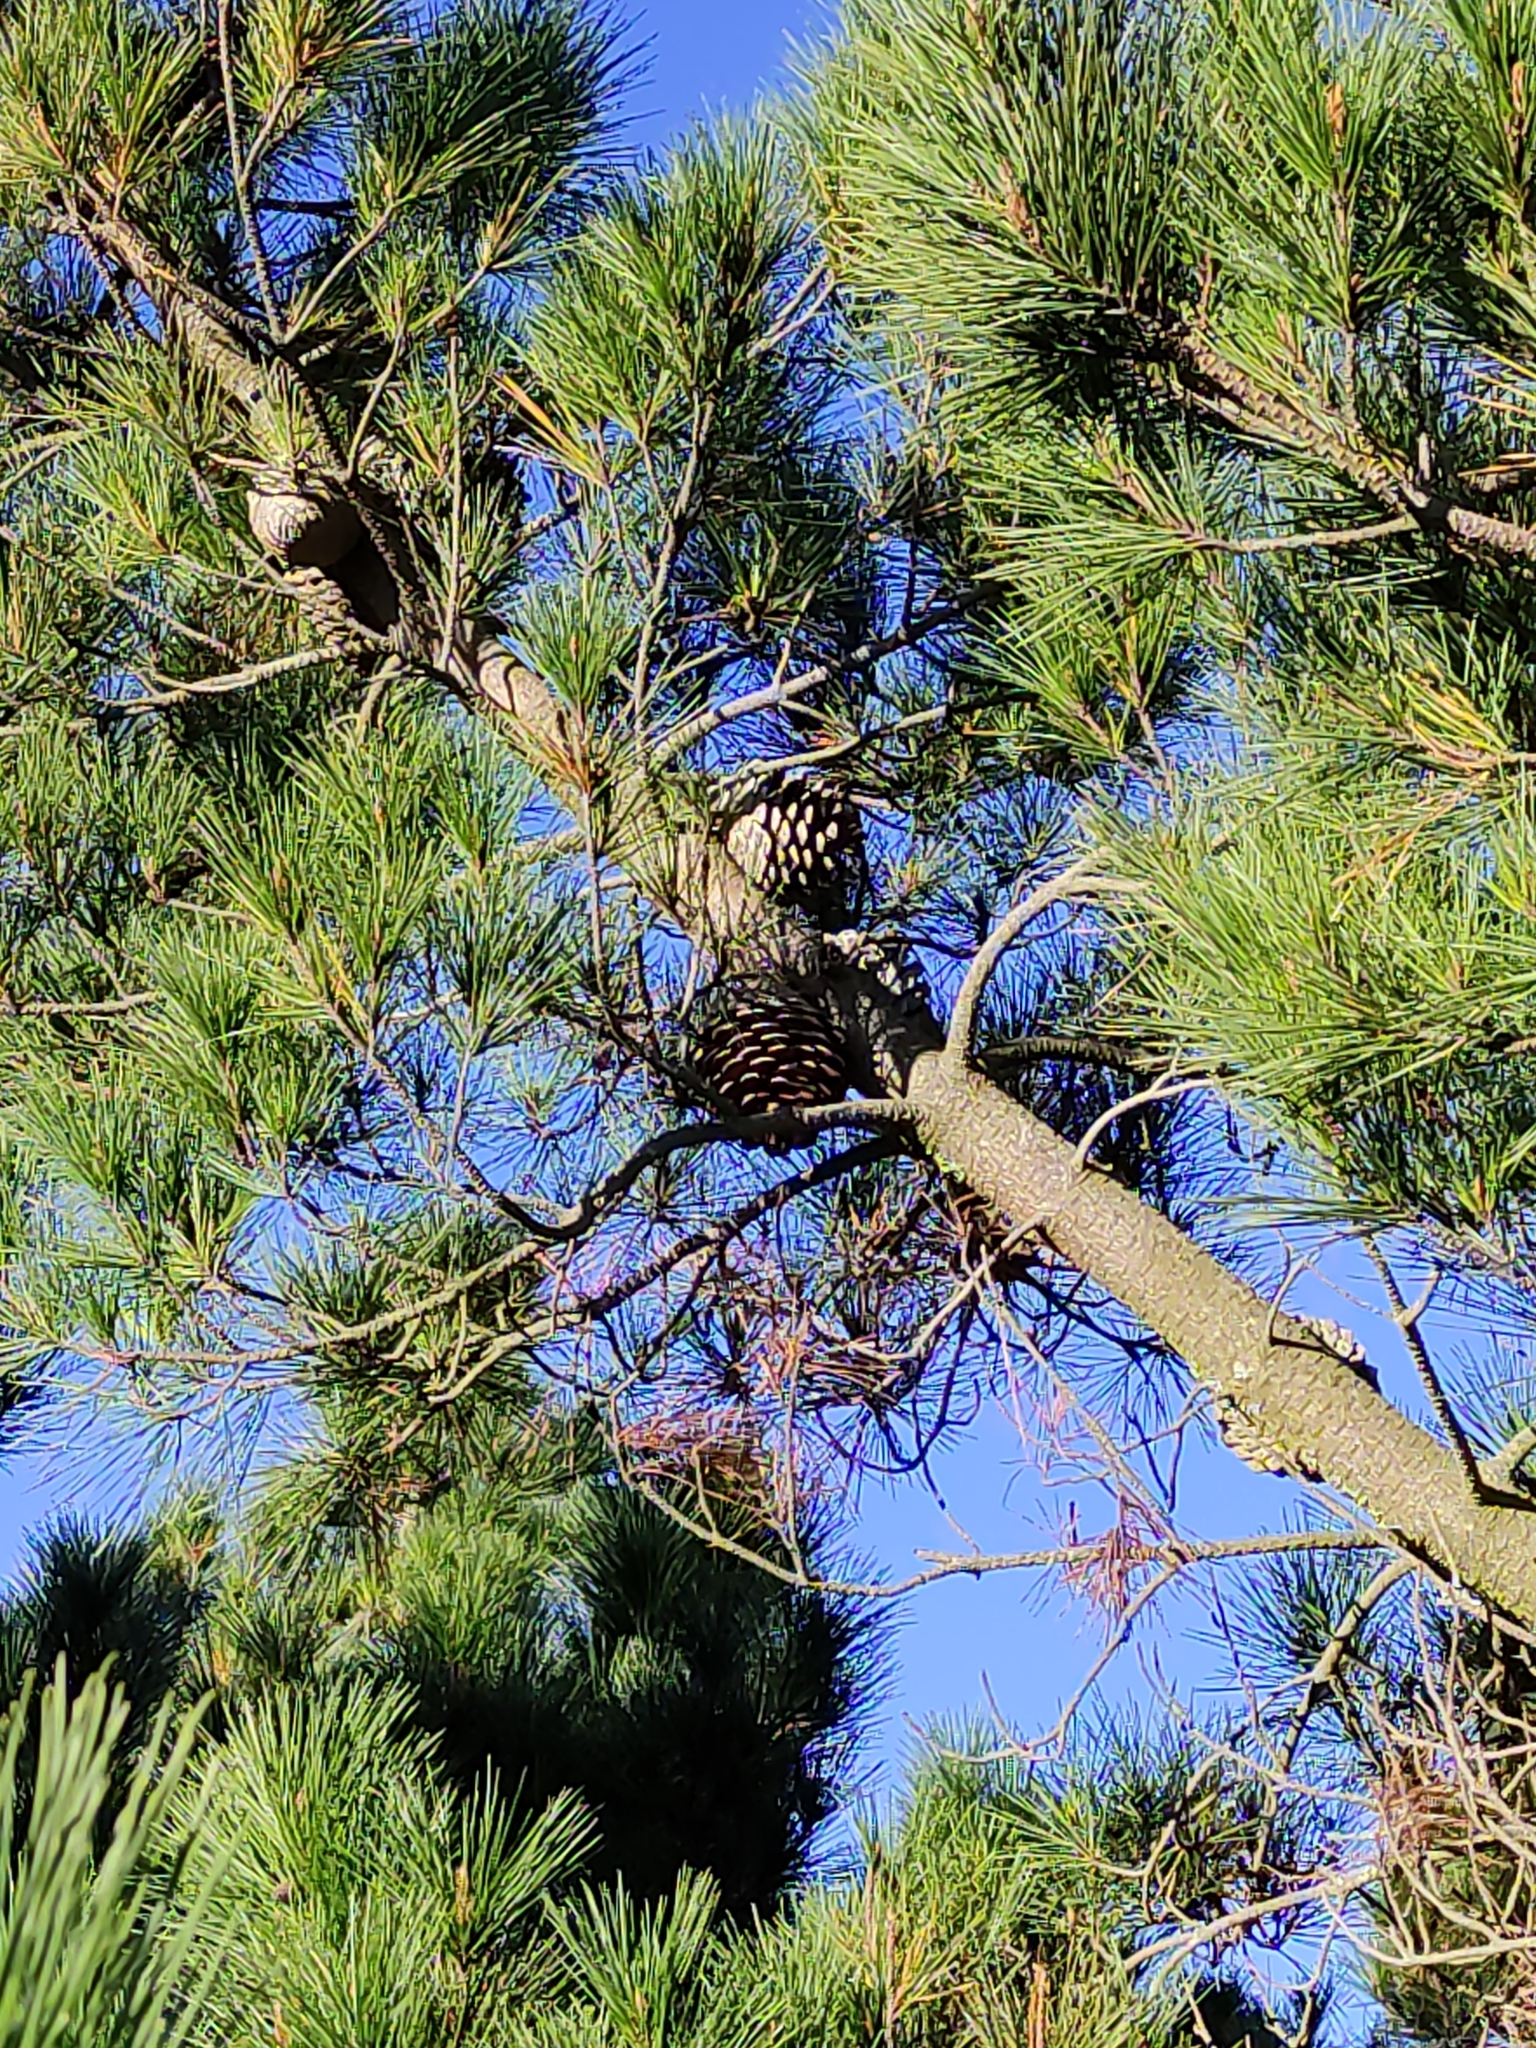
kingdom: Plantae
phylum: Tracheophyta
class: Pinopsida
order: Pinales
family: Pinaceae
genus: Pinus
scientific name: Pinus radiata
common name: Monterey pine
